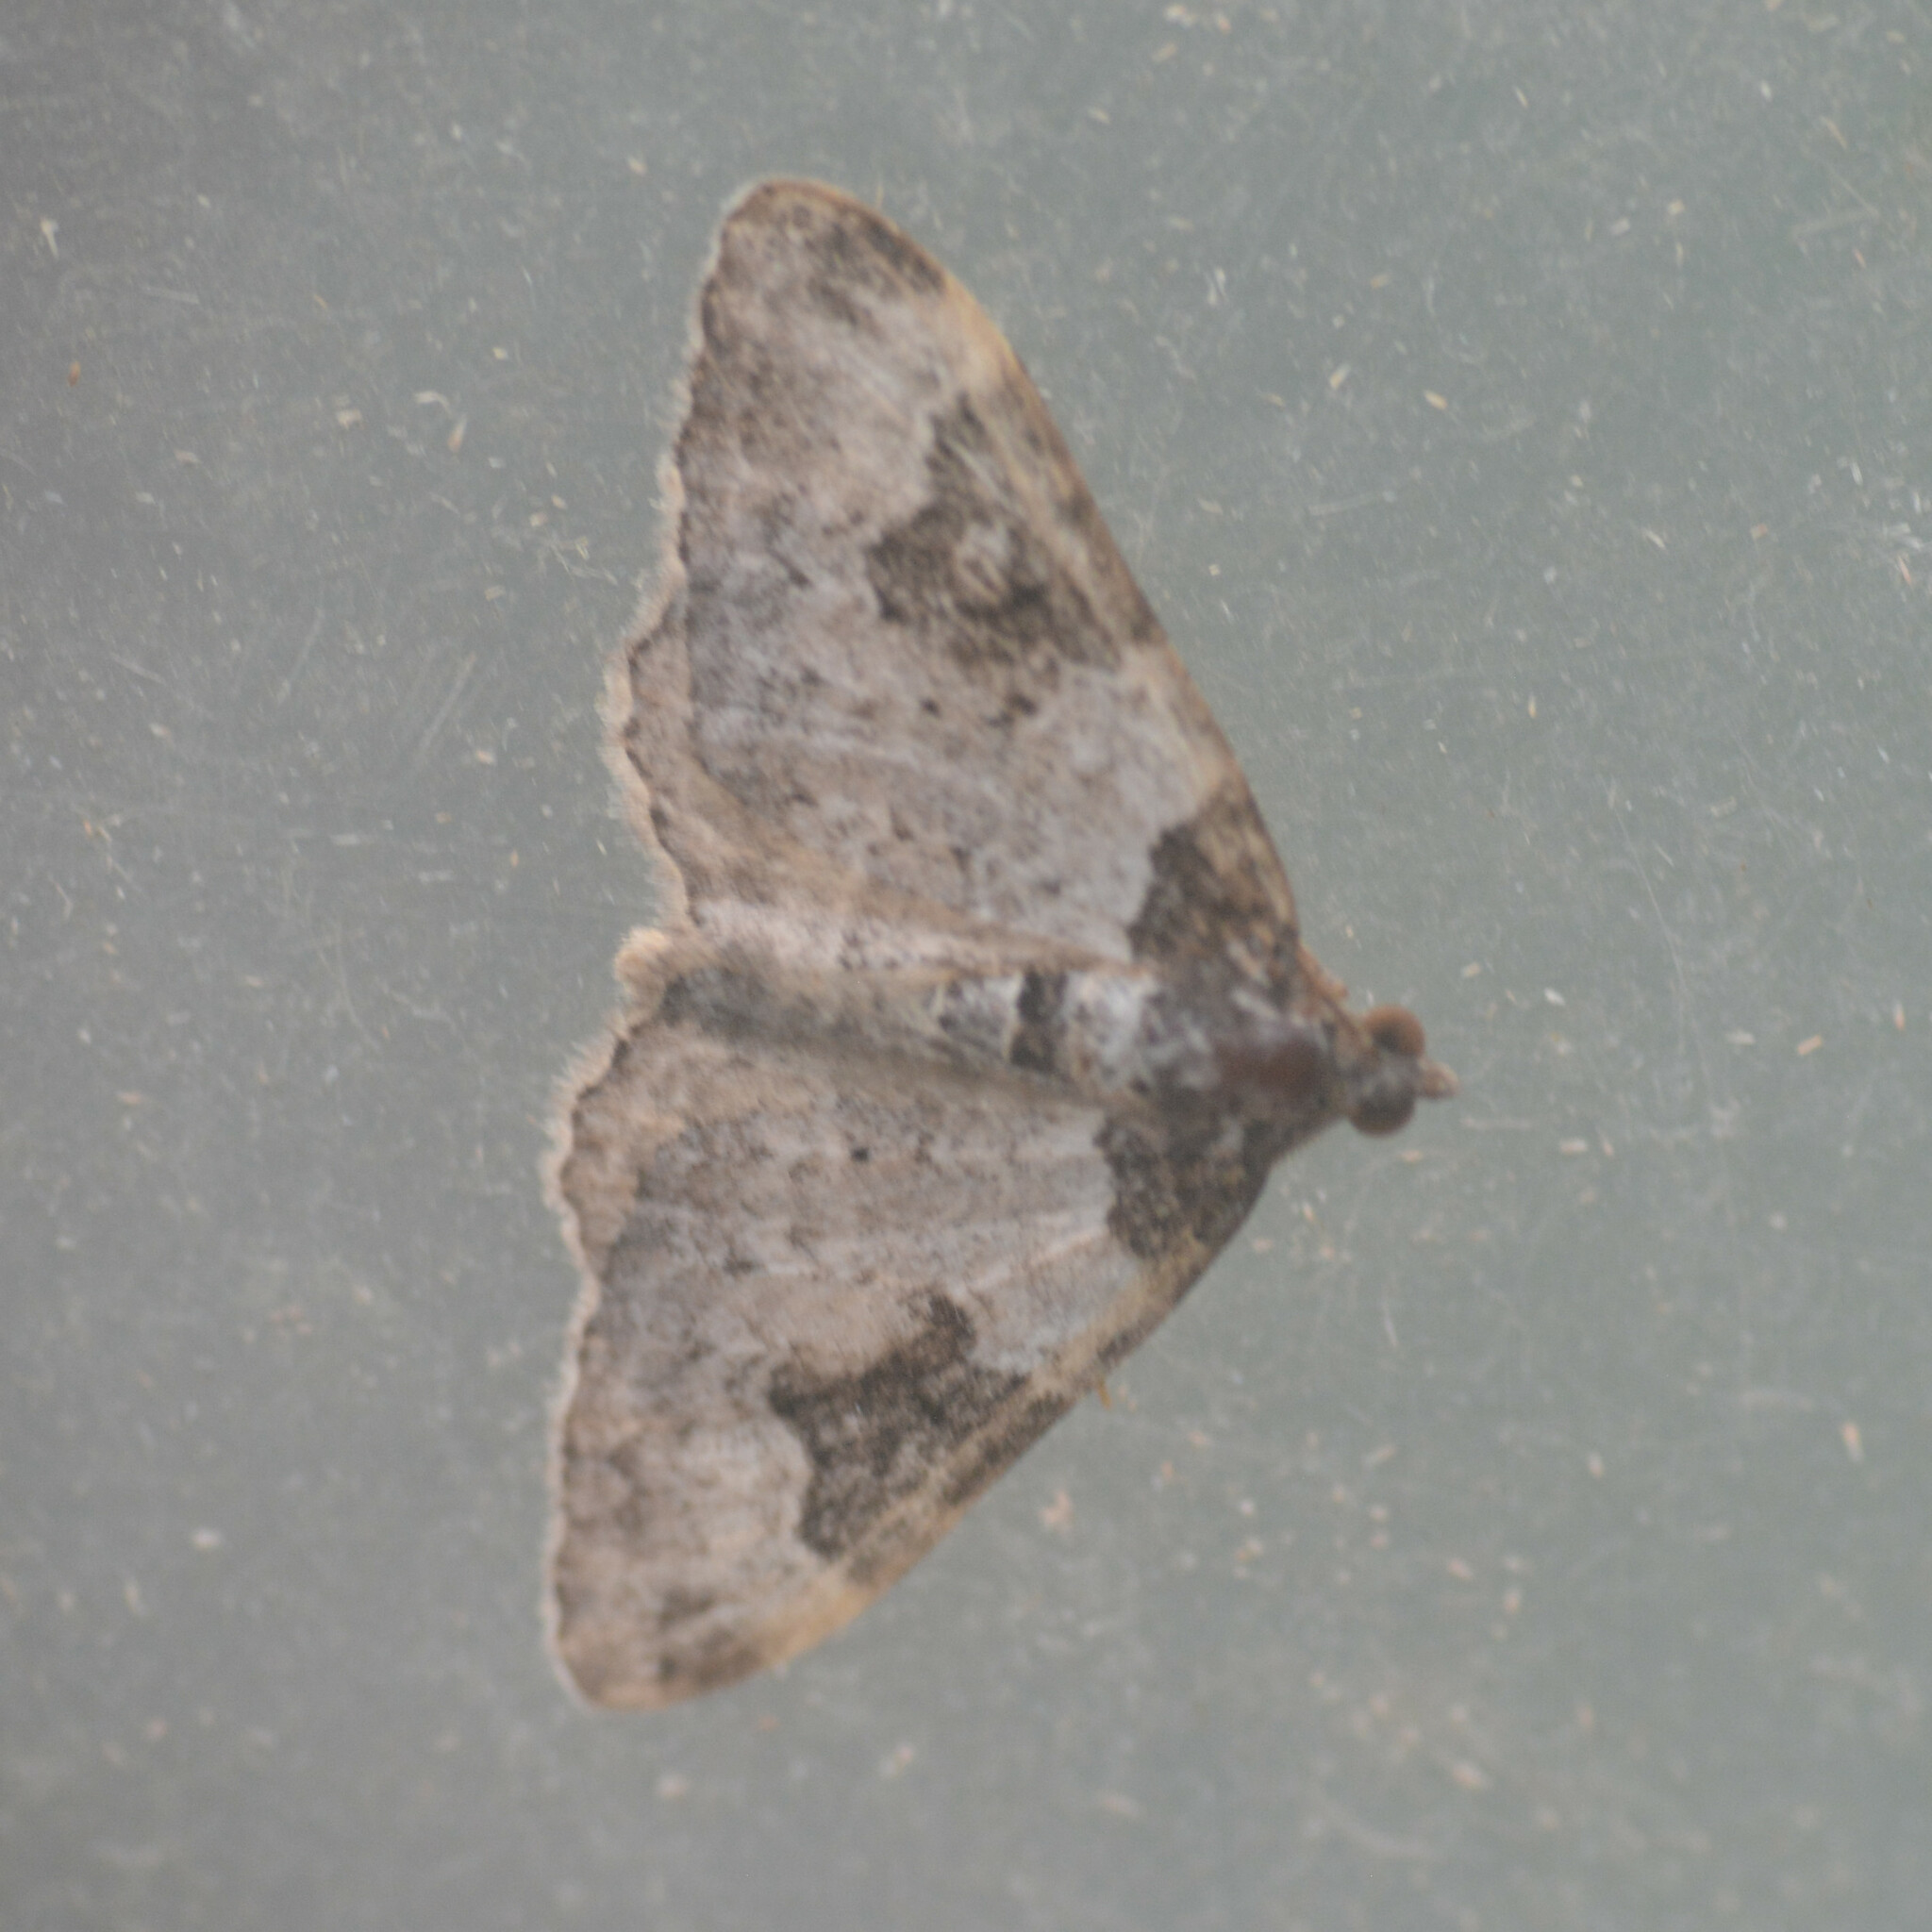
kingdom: Animalia
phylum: Arthropoda
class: Insecta
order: Lepidoptera
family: Geometridae
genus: Xanthorhoe
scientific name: Xanthorhoe fluctuata
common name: Garden carpet
